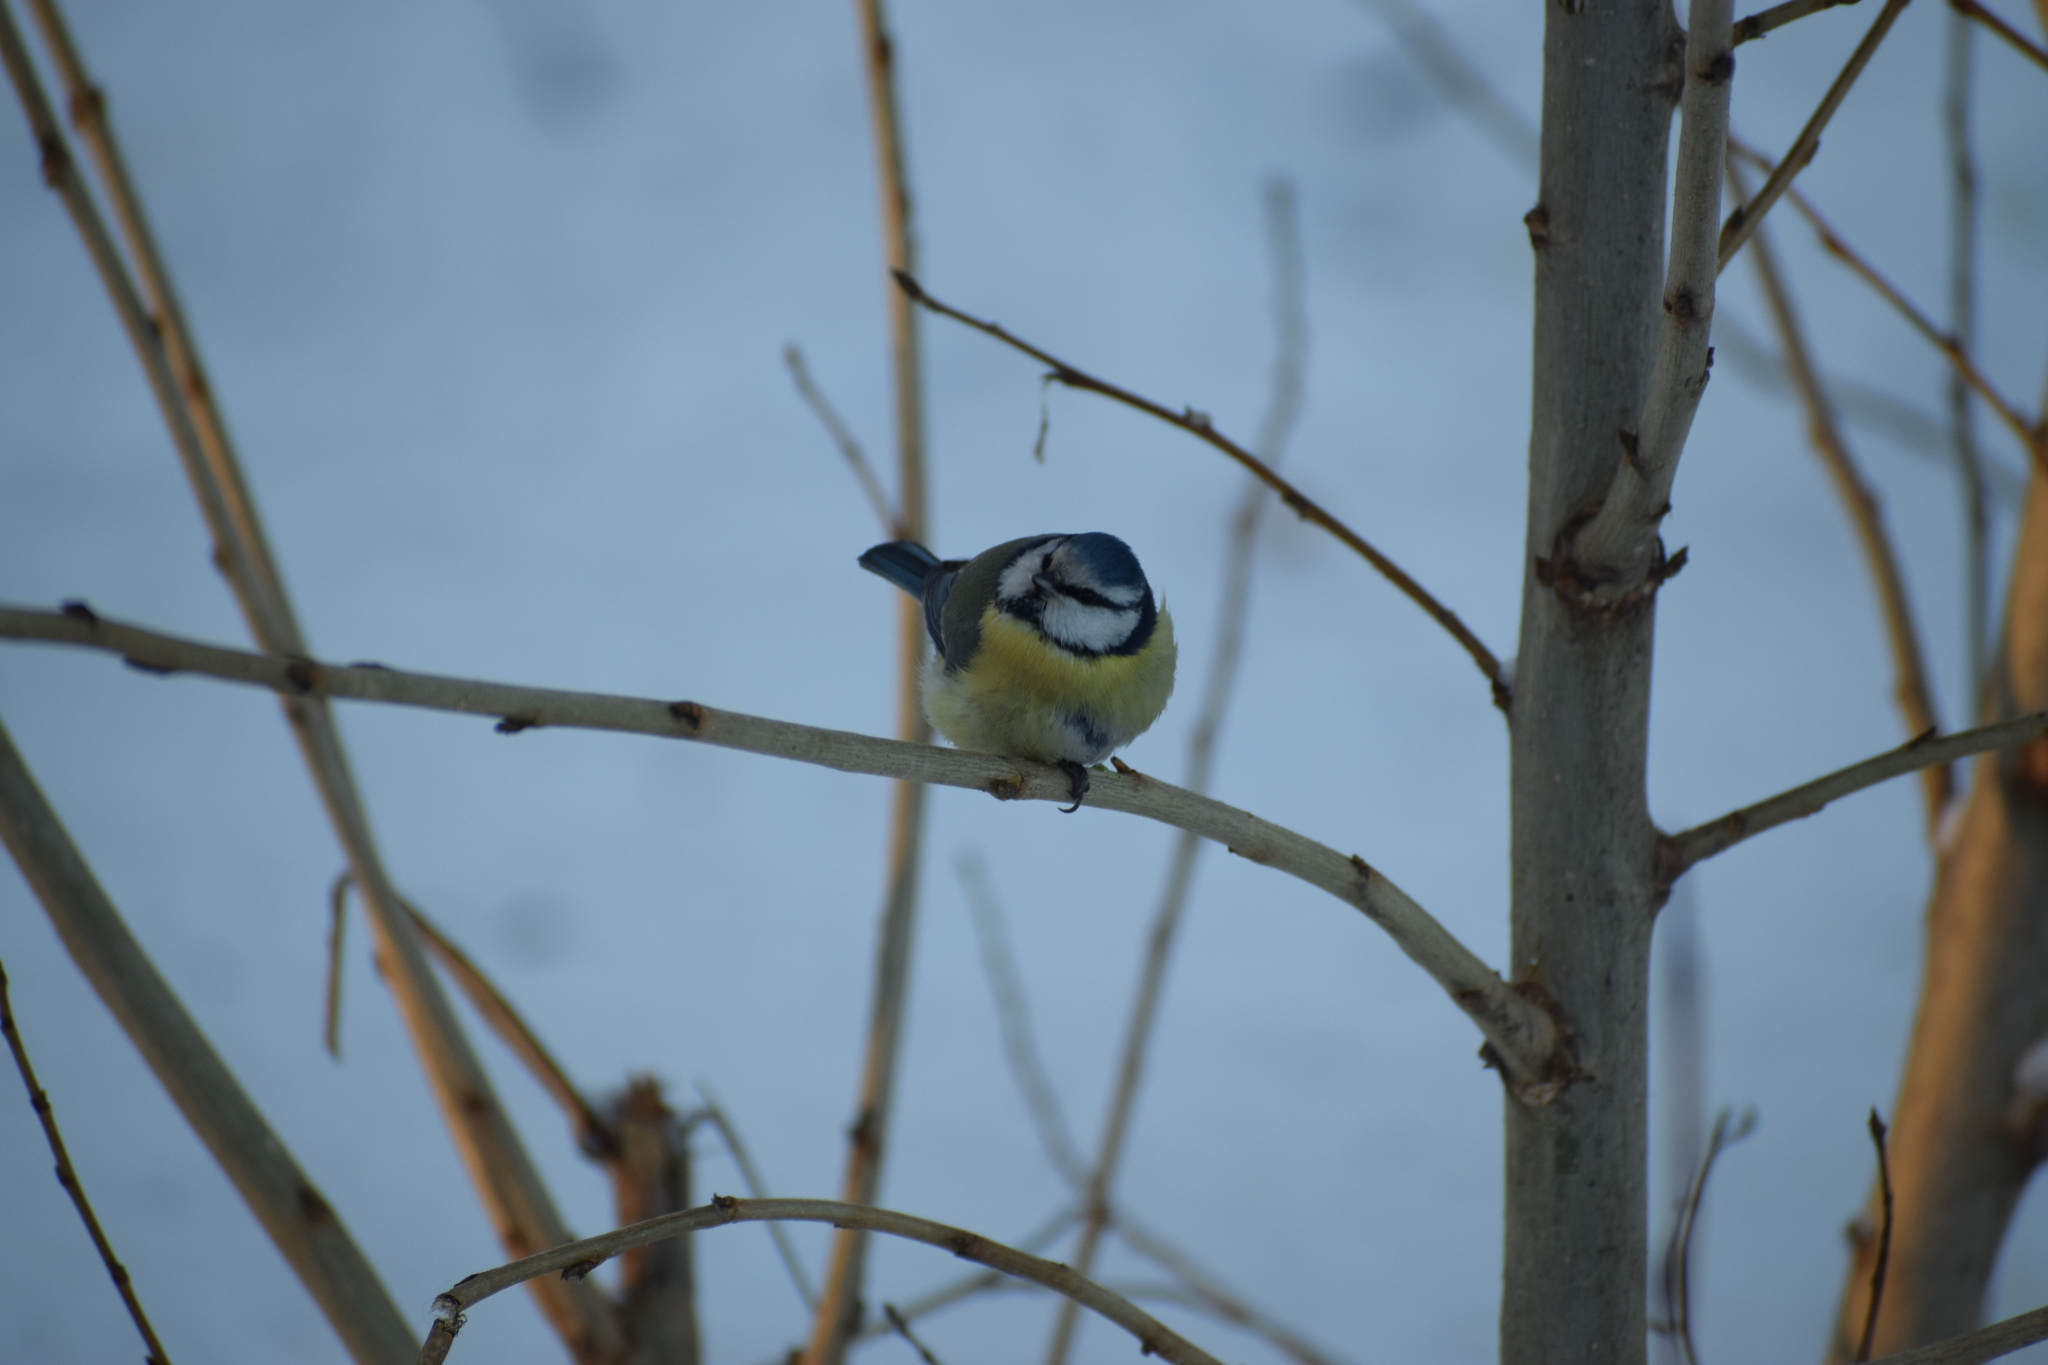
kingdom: Animalia
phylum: Chordata
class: Aves
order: Passeriformes
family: Paridae
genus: Cyanistes
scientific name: Cyanistes caeruleus
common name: Eurasian blue tit
